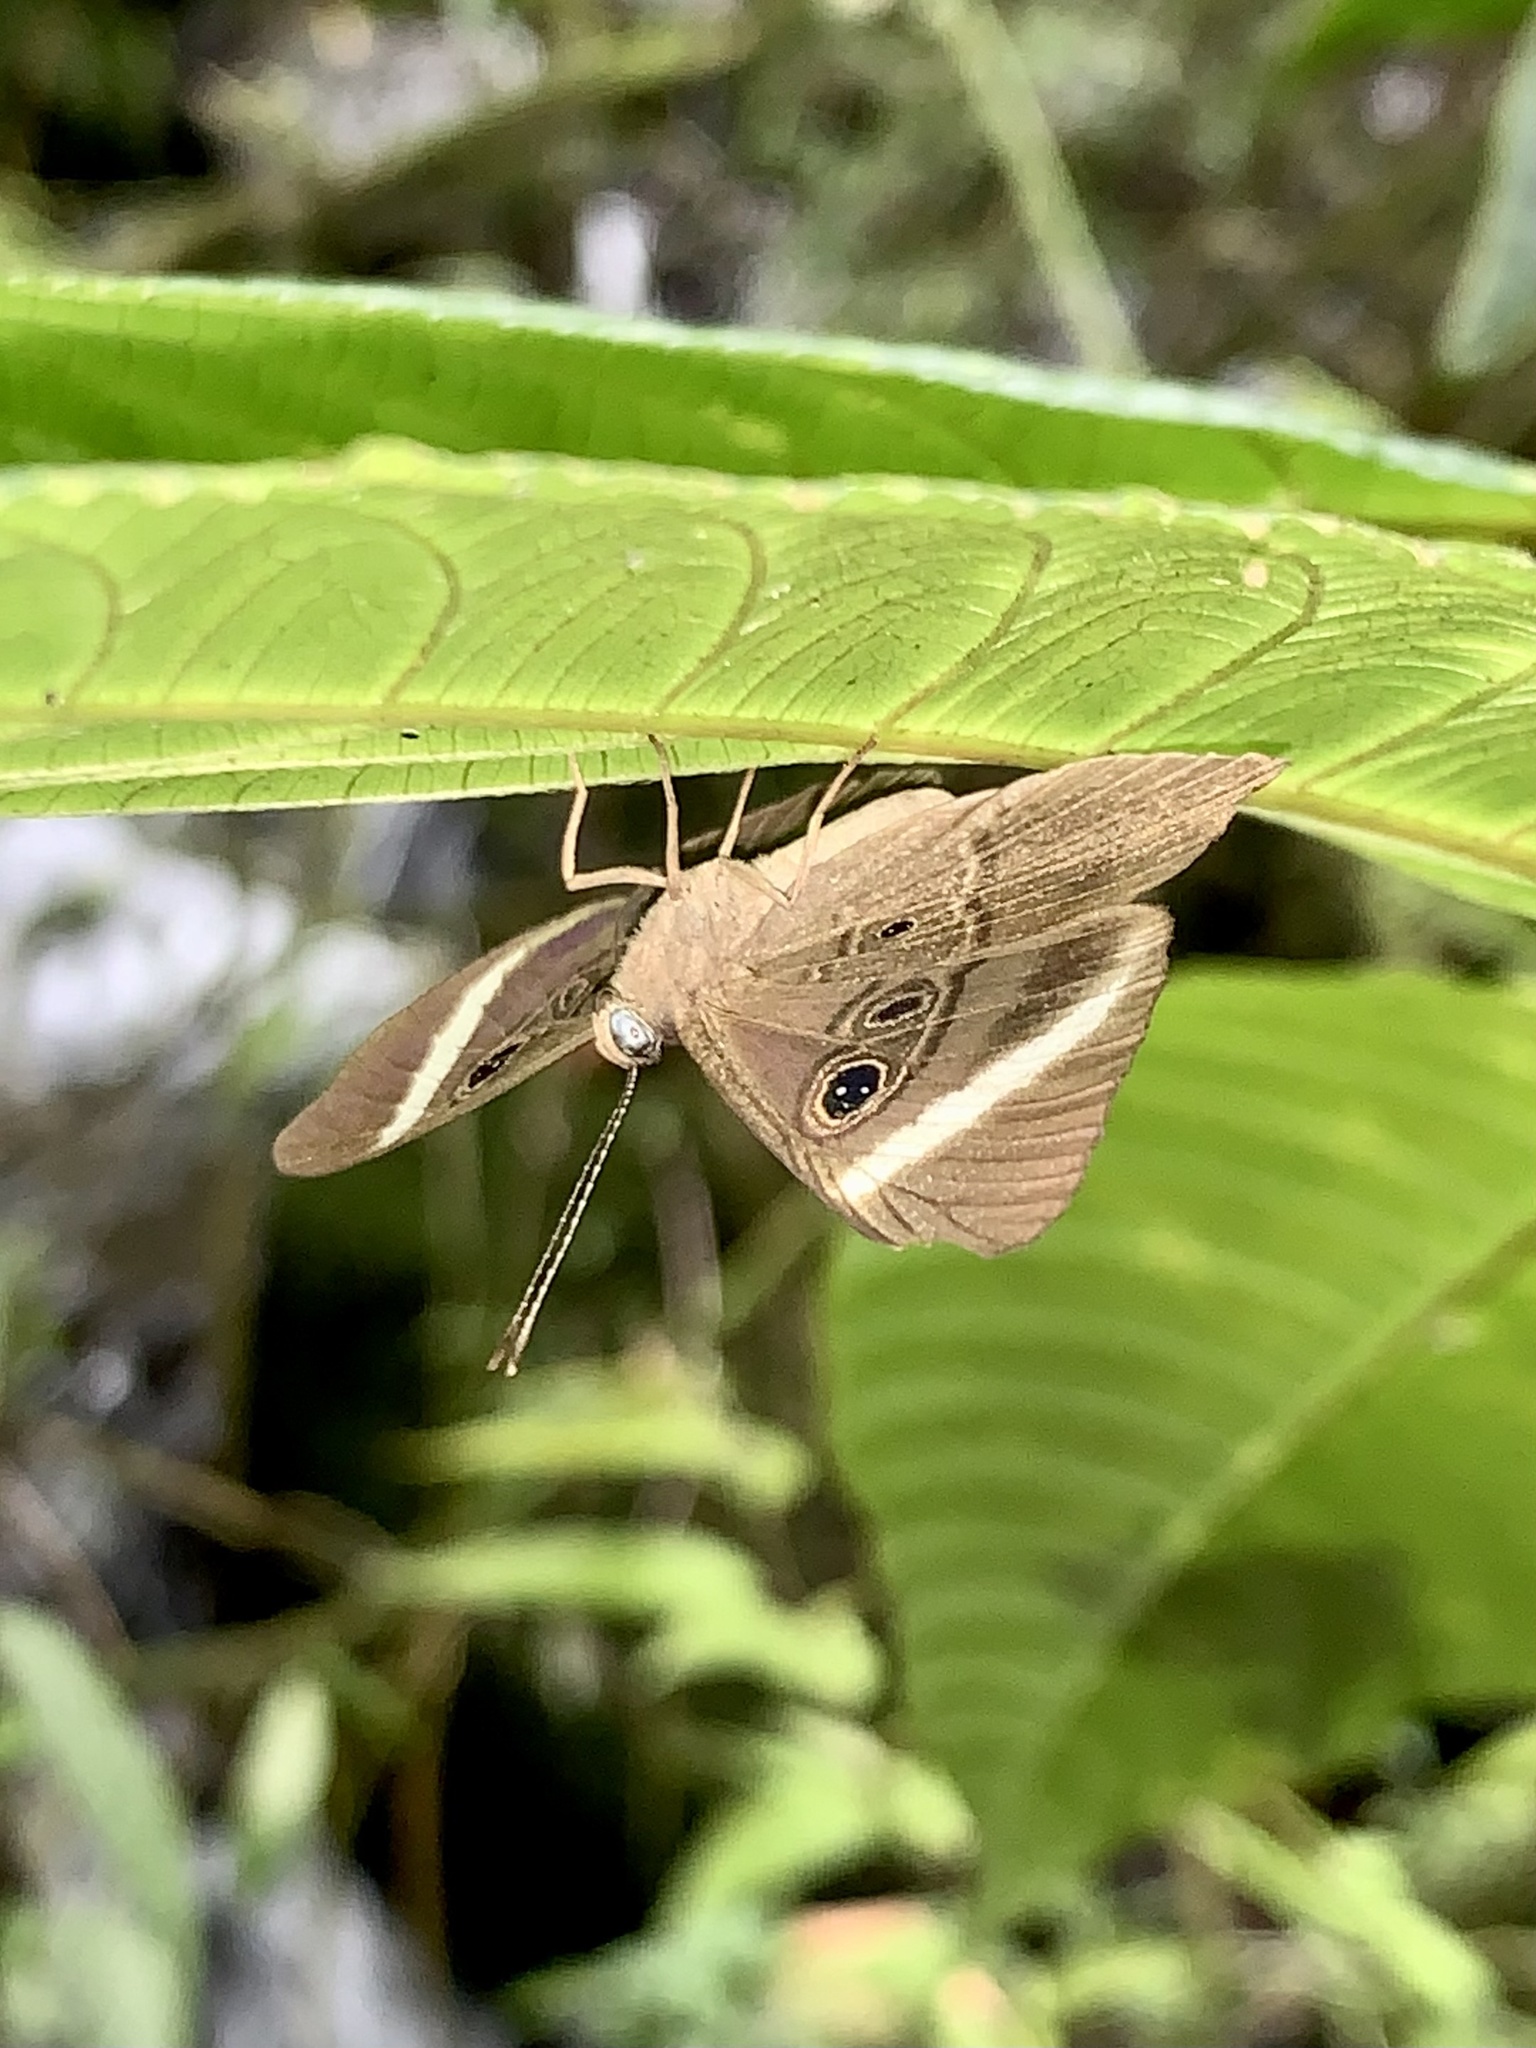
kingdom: Animalia
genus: Mesosemia
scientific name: Mesosemia mevania
